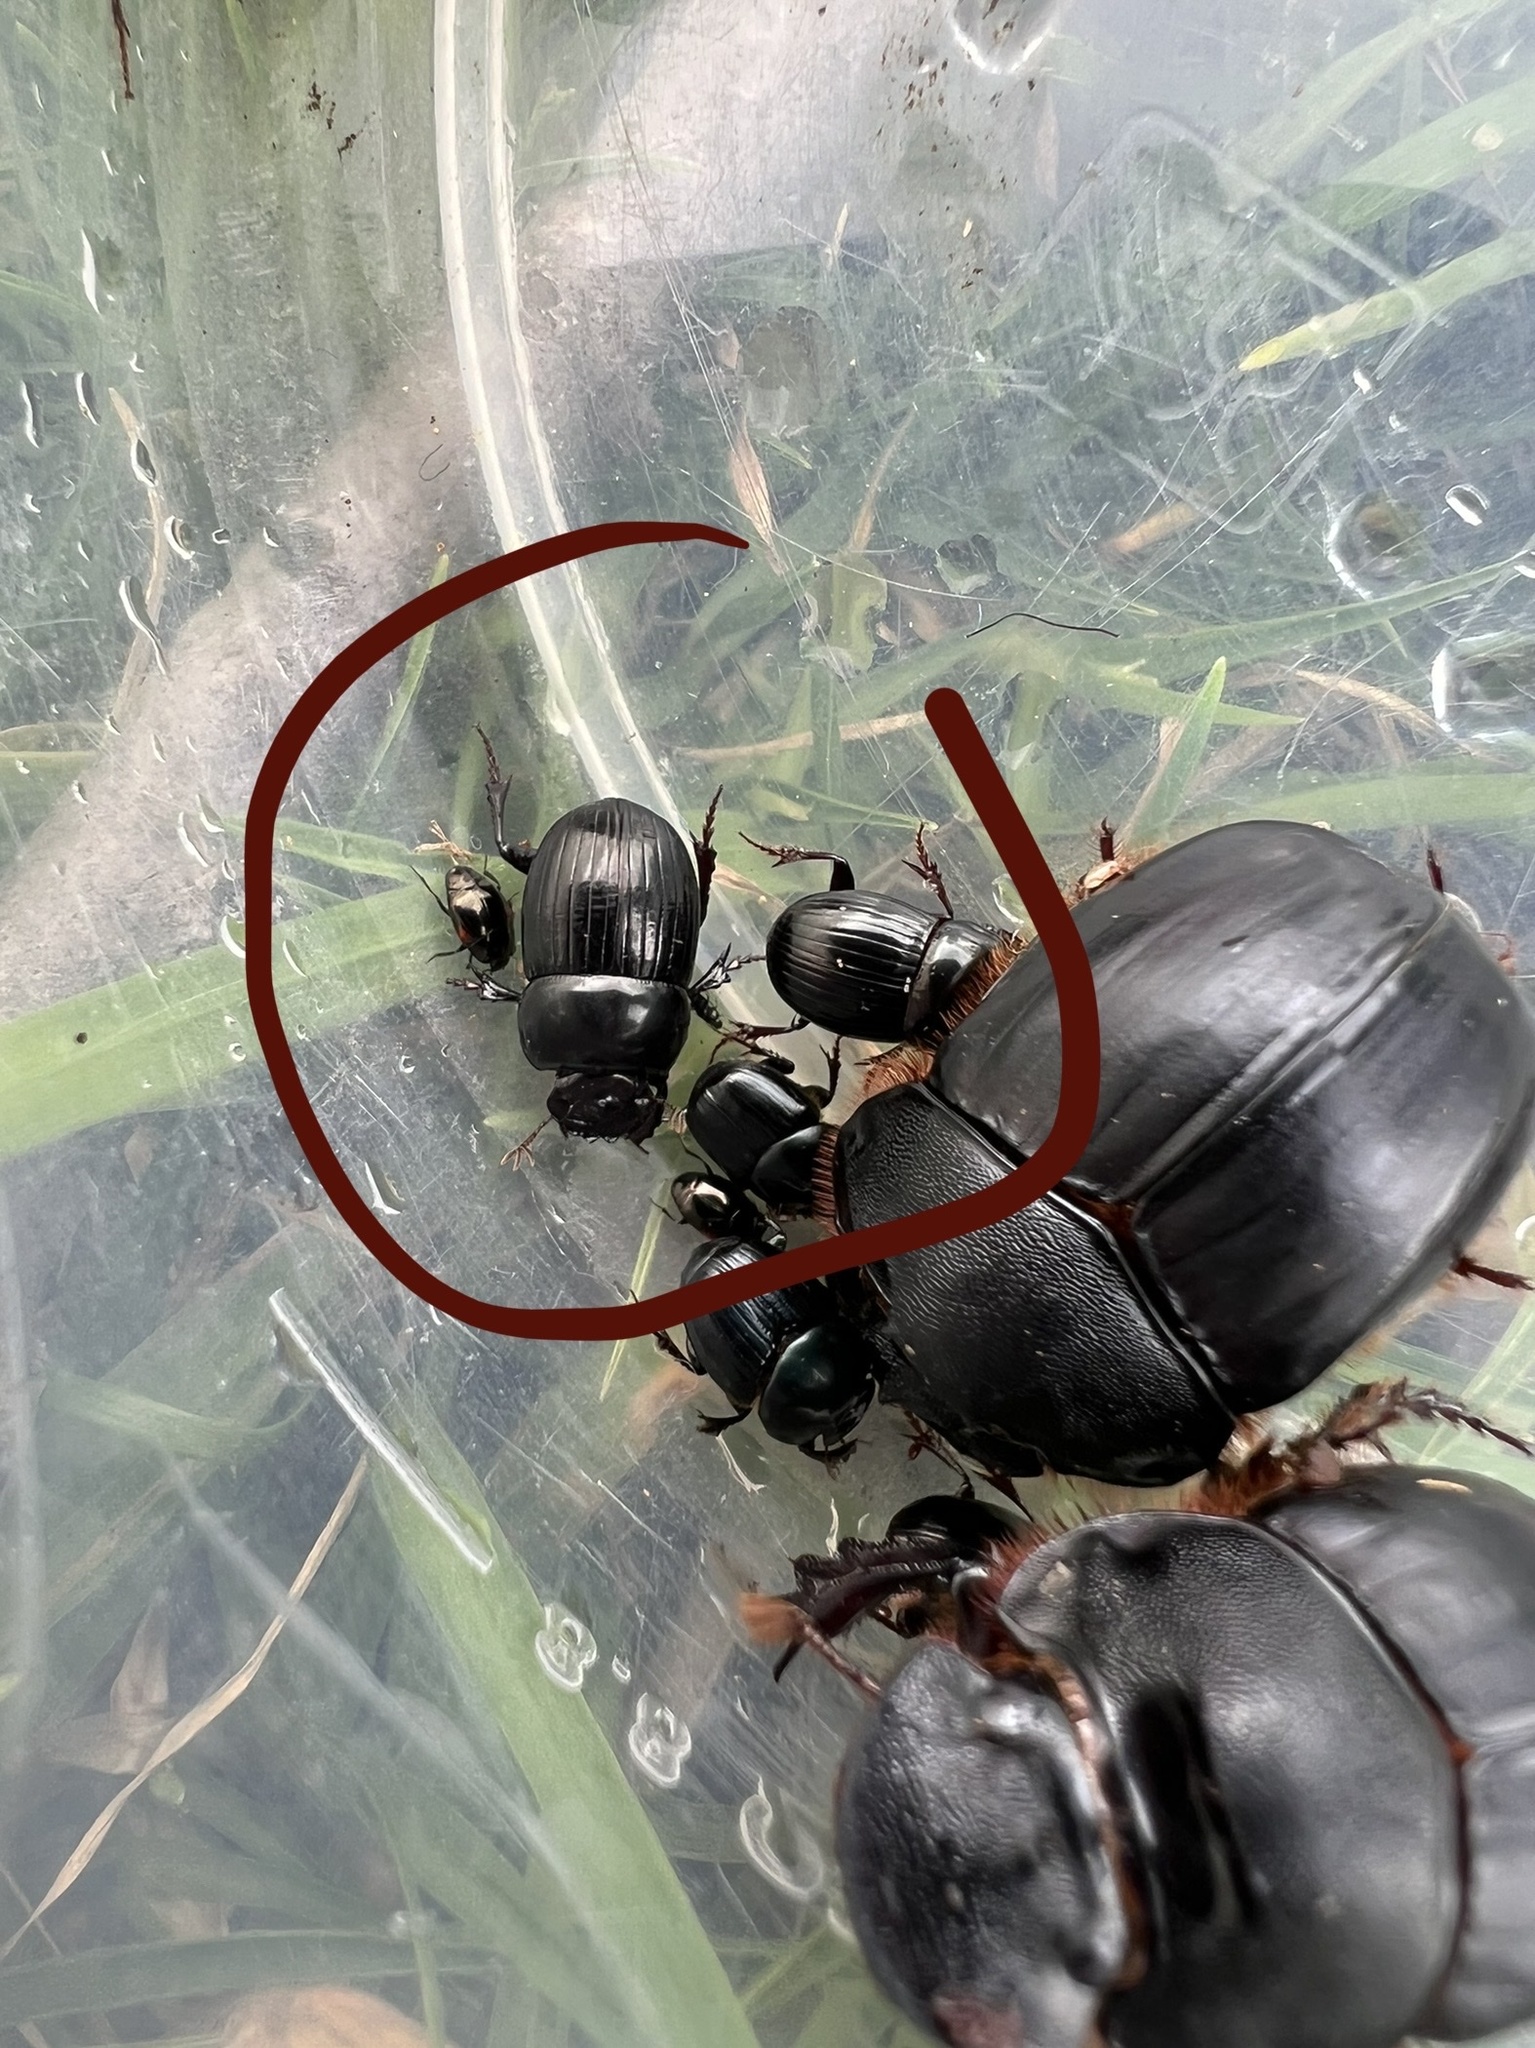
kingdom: Animalia
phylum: Arthropoda
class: Insecta
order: Coleoptera
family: Scarabaeidae
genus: Uroxys
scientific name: Uroxys coarctatus
